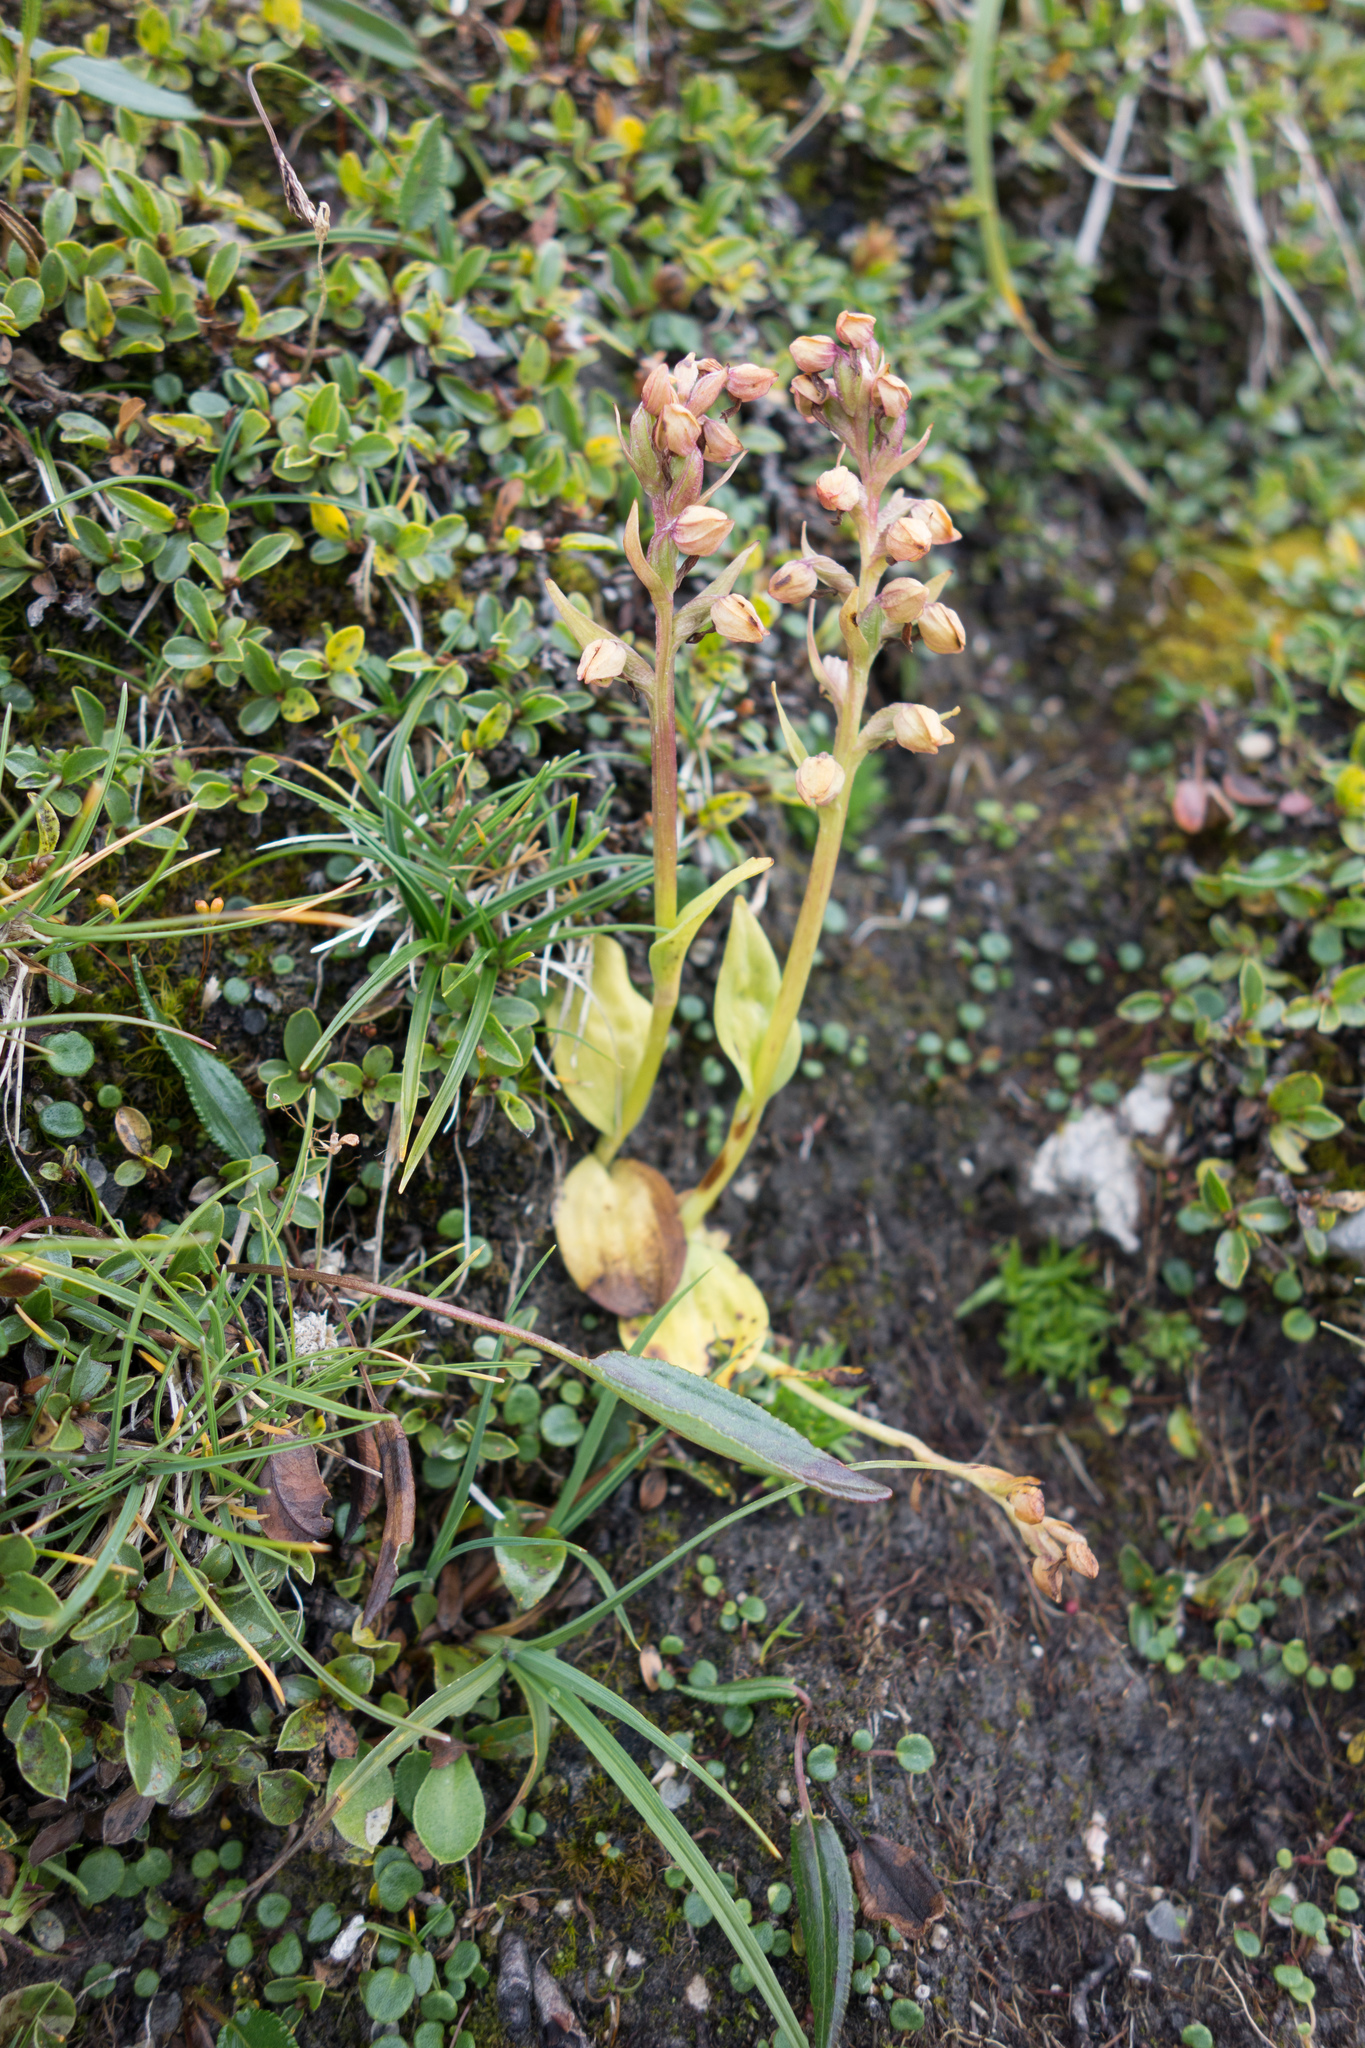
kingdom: Plantae
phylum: Tracheophyta
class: Liliopsida
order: Asparagales
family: Orchidaceae
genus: Dactylorhiza
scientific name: Dactylorhiza viridis
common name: Longbract frog orchid
